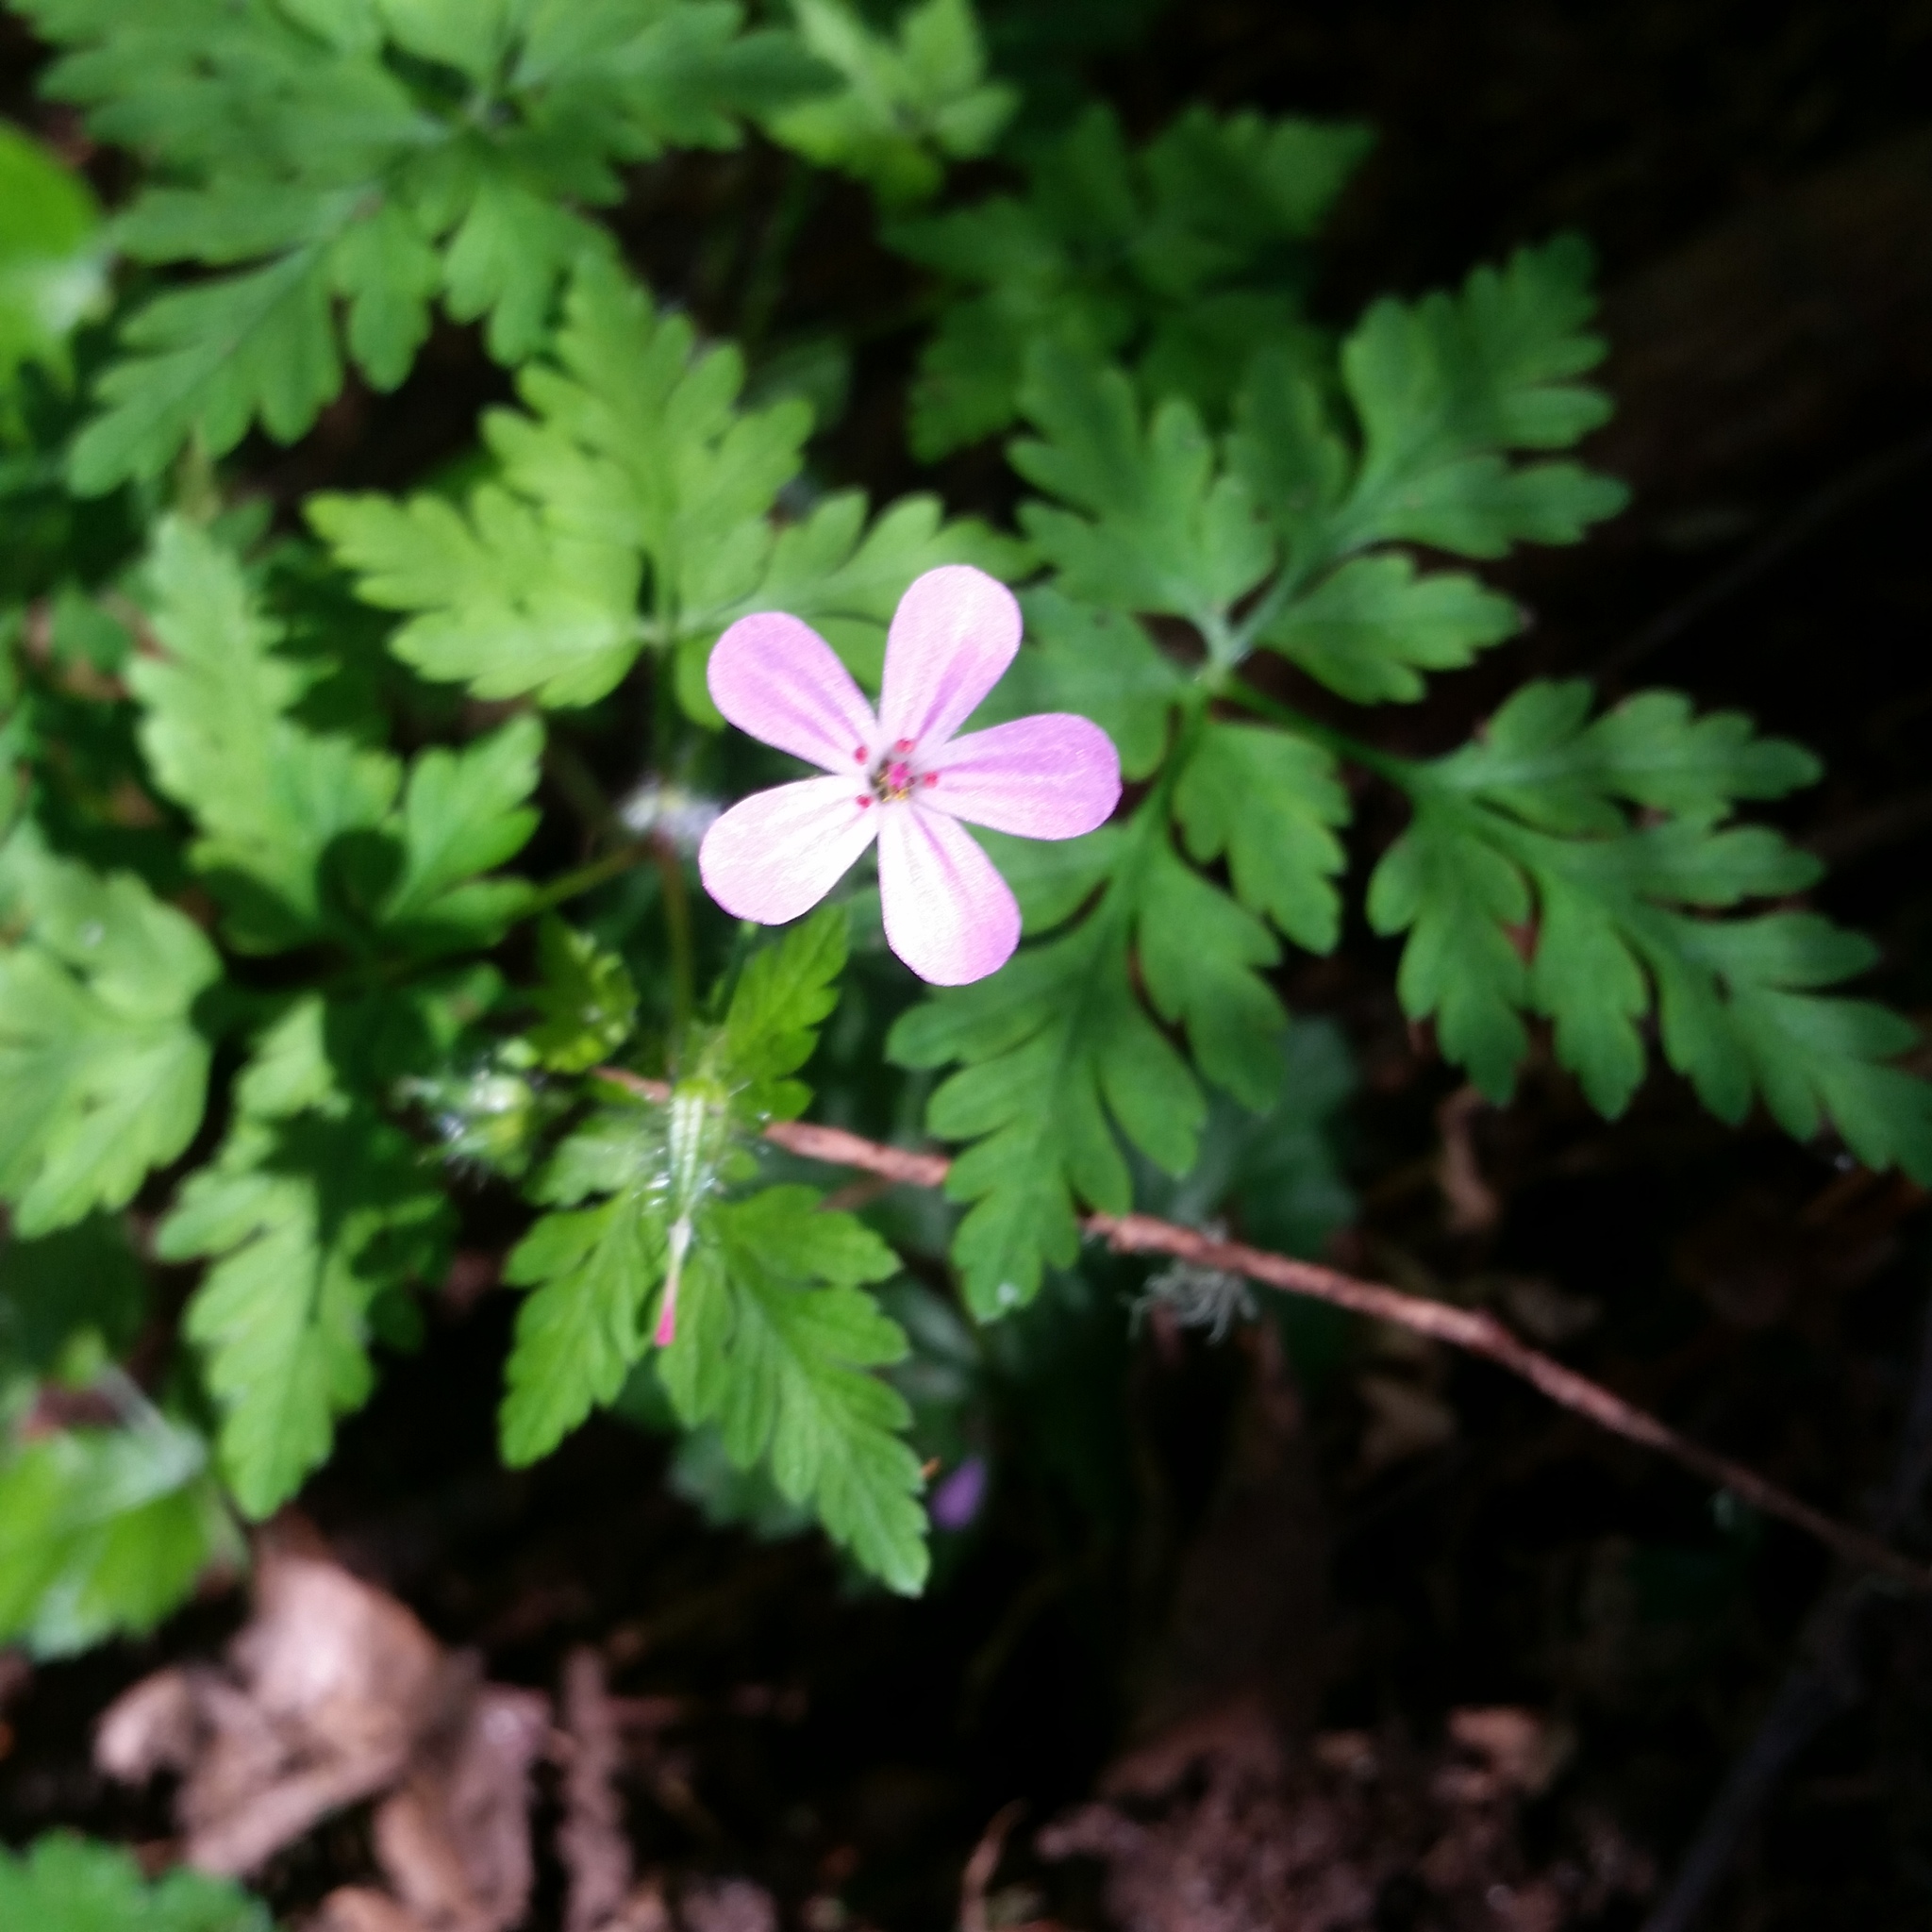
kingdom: Plantae
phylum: Tracheophyta
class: Magnoliopsida
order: Geraniales
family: Geraniaceae
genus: Geranium
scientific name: Geranium robertianum
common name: Herb-robert
